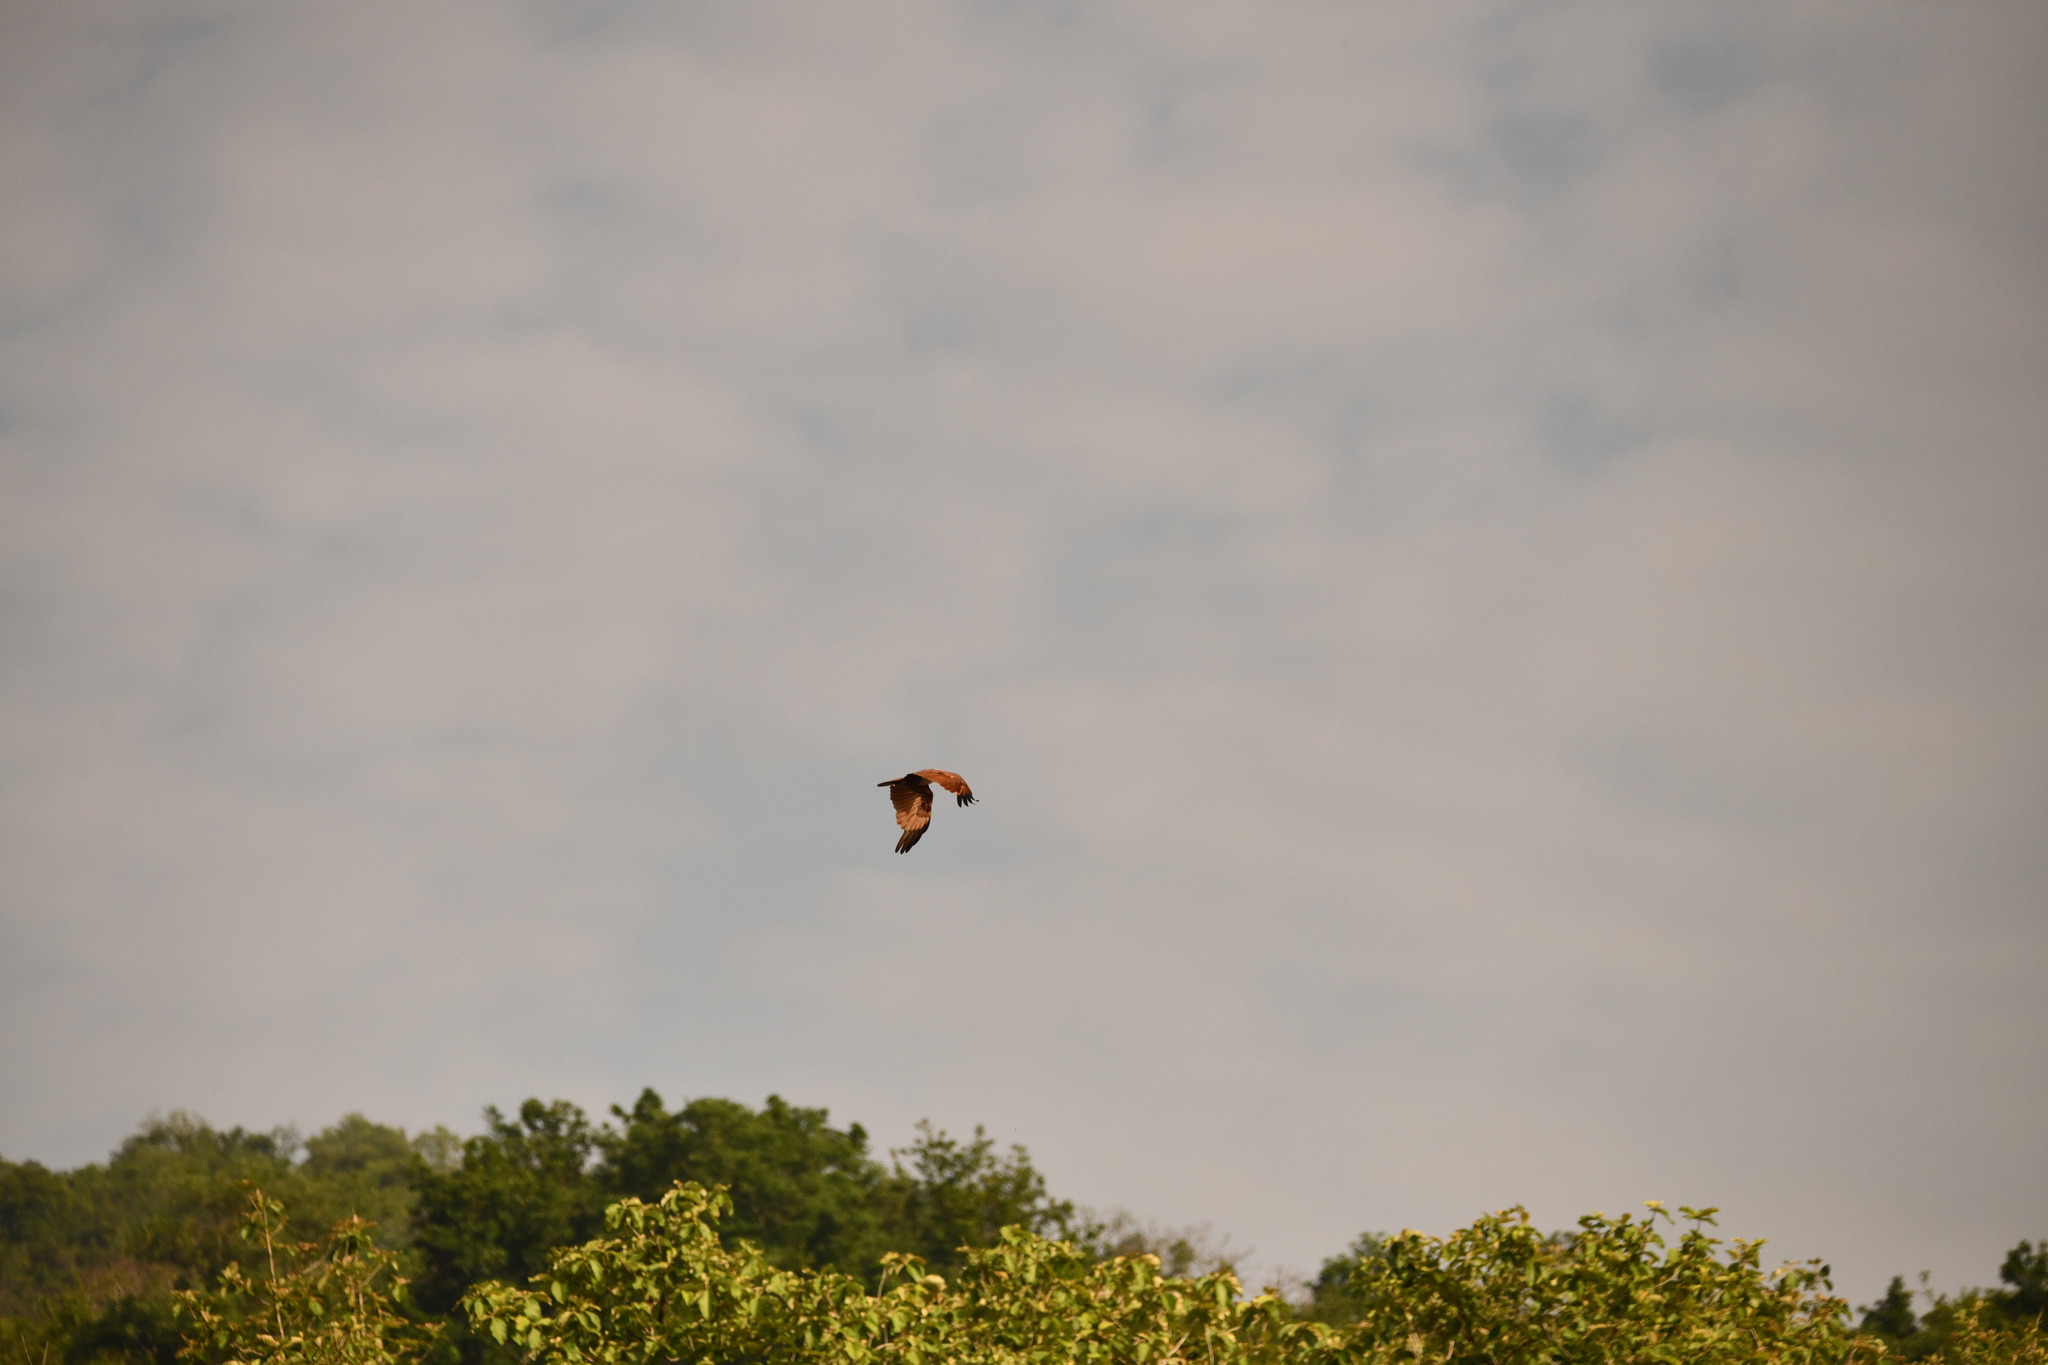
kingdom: Animalia
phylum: Chordata
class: Aves
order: Accipitriformes
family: Accipitridae
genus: Haliastur
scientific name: Haliastur indus
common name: Brahminy kite
